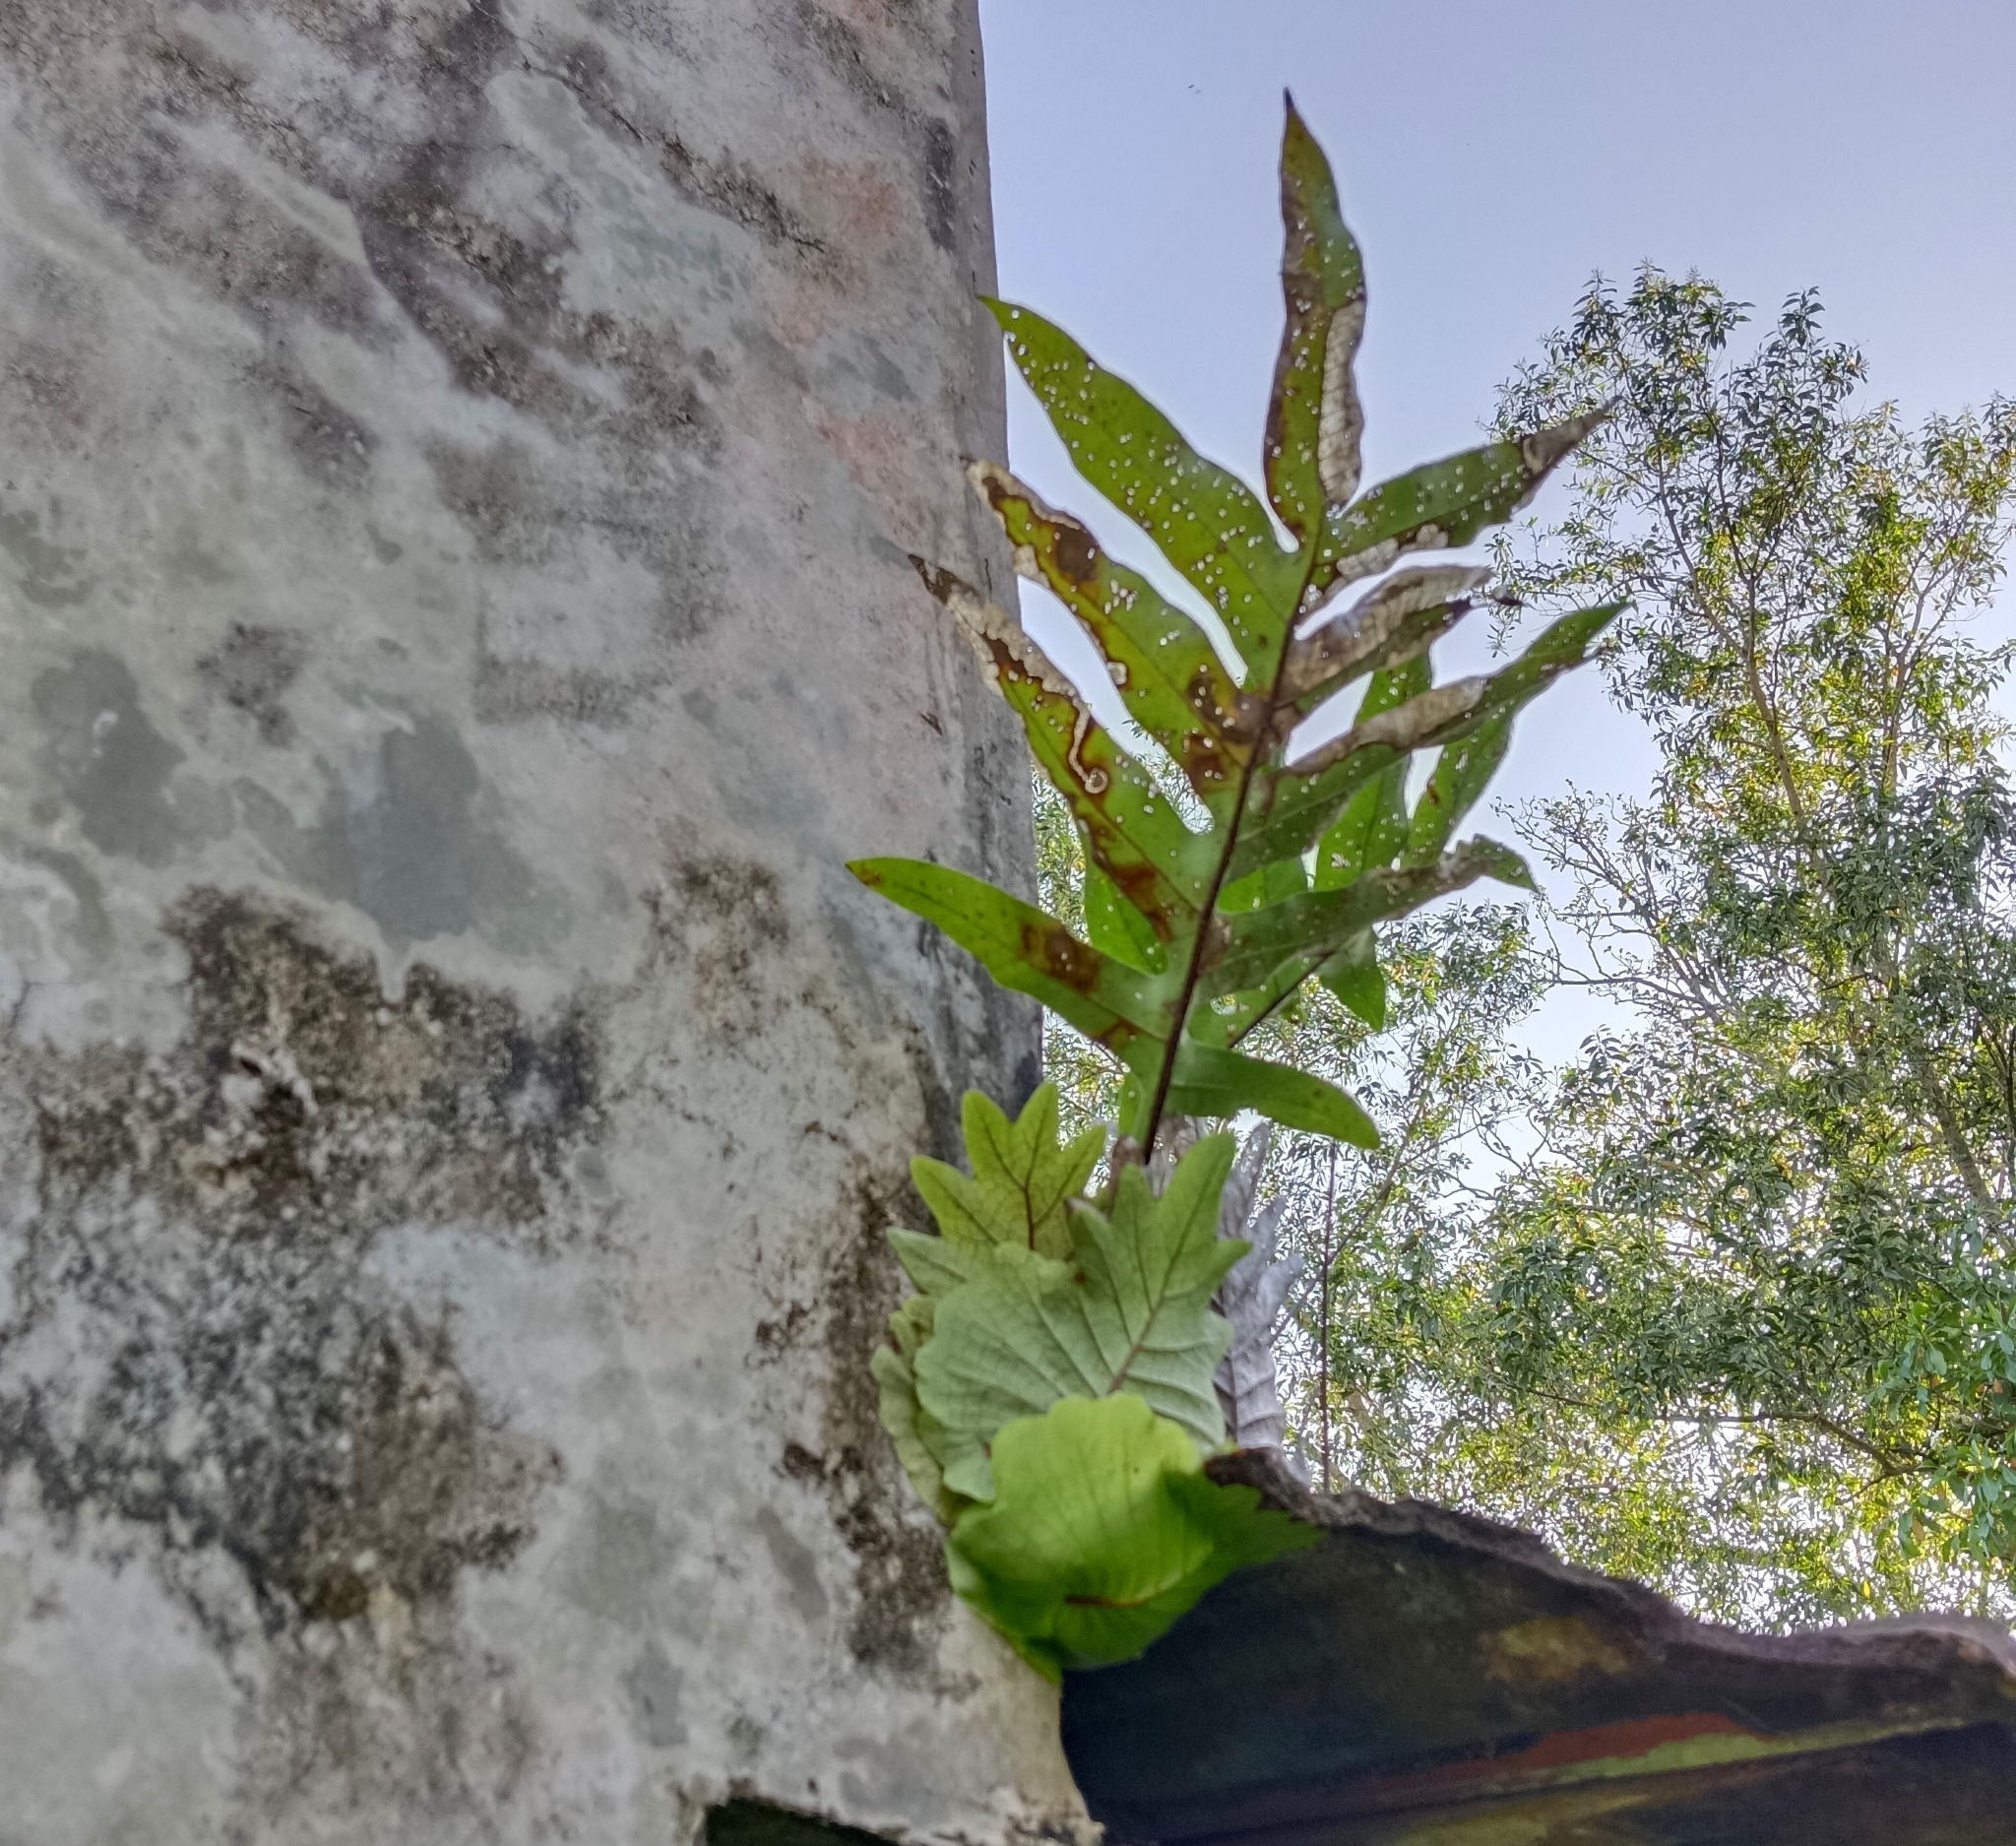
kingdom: Plantae
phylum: Tracheophyta
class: Polypodiopsida
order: Polypodiales
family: Polypodiaceae
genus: Drynaria
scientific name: Drynaria quercifolia
